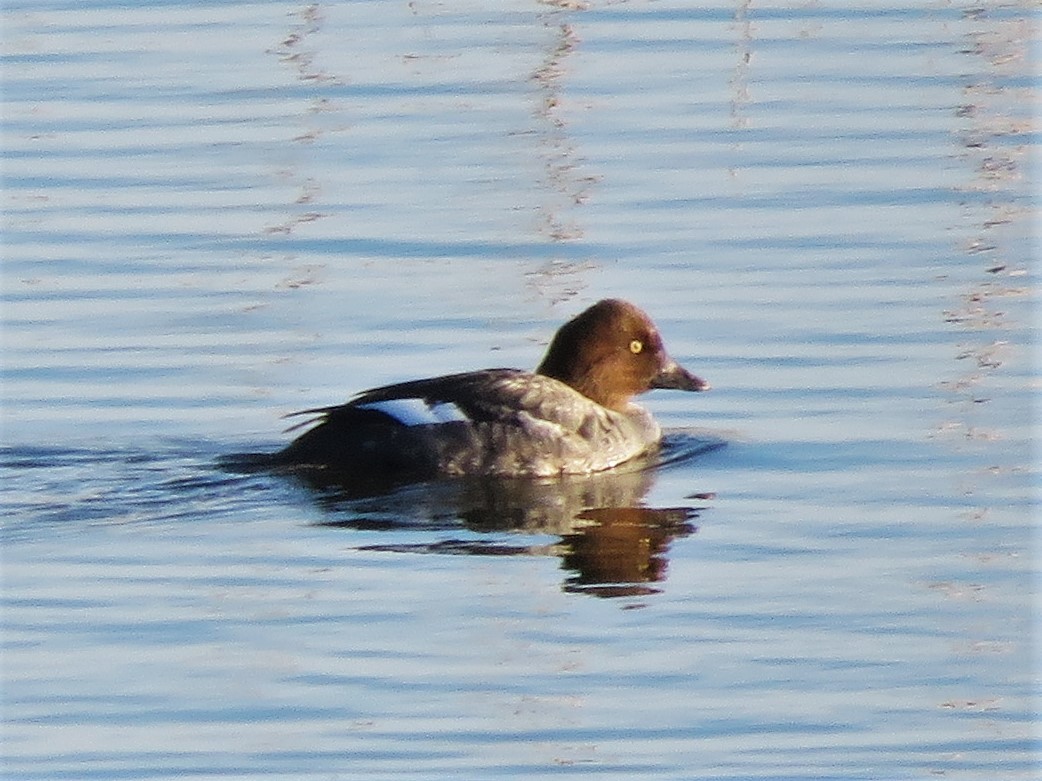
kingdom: Animalia
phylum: Chordata
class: Aves
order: Anseriformes
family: Anatidae
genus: Bucephala
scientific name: Bucephala clangula
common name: Common goldeneye
